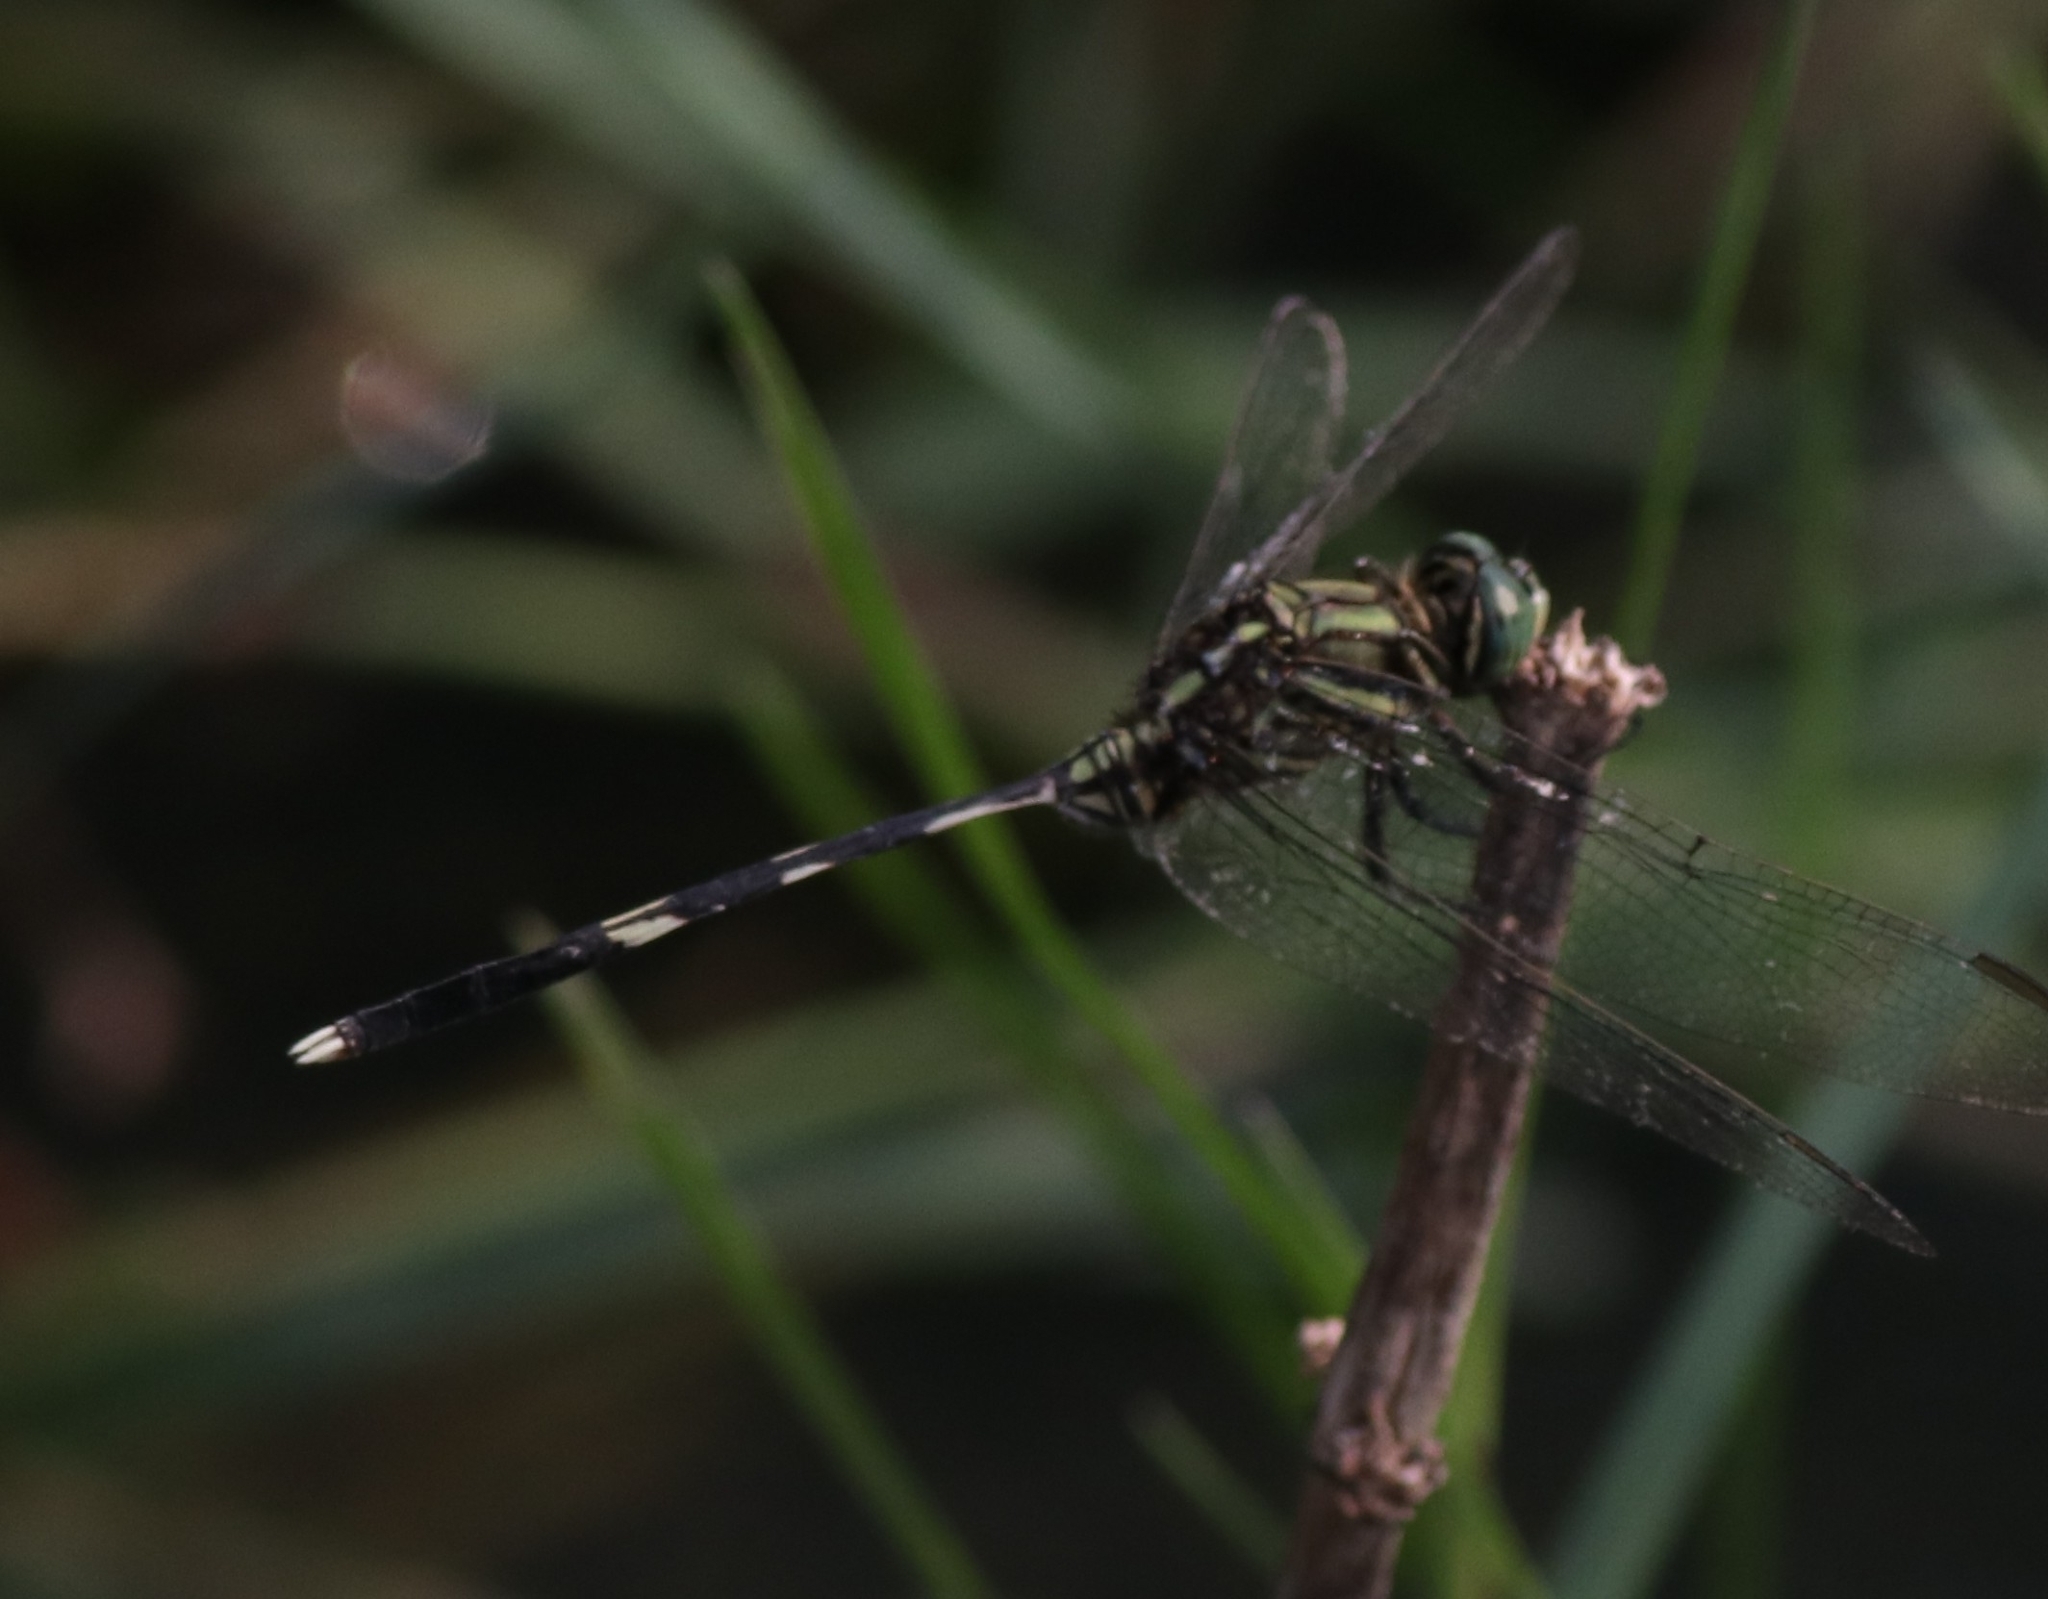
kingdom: Animalia
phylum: Arthropoda
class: Insecta
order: Odonata
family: Libellulidae
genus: Orthetrum
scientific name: Orthetrum sabina
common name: Slender skimmer
